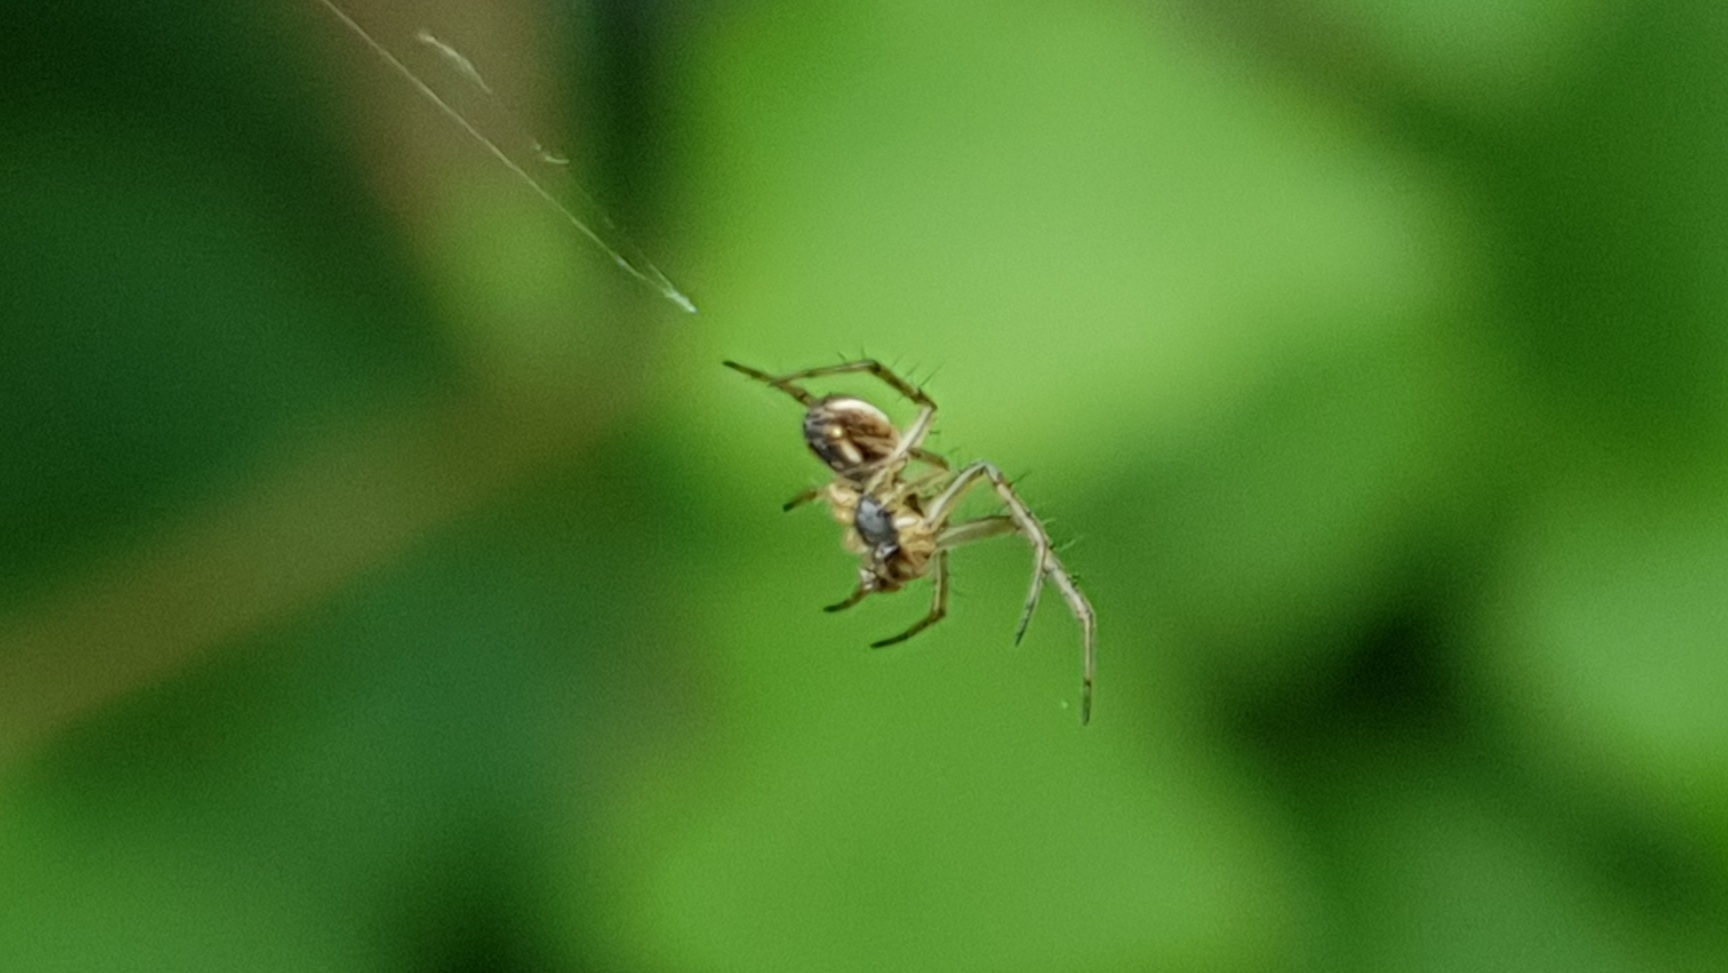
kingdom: Animalia
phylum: Arthropoda
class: Arachnida
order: Araneae
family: Araneidae
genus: Mangora
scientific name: Mangora acalypha
